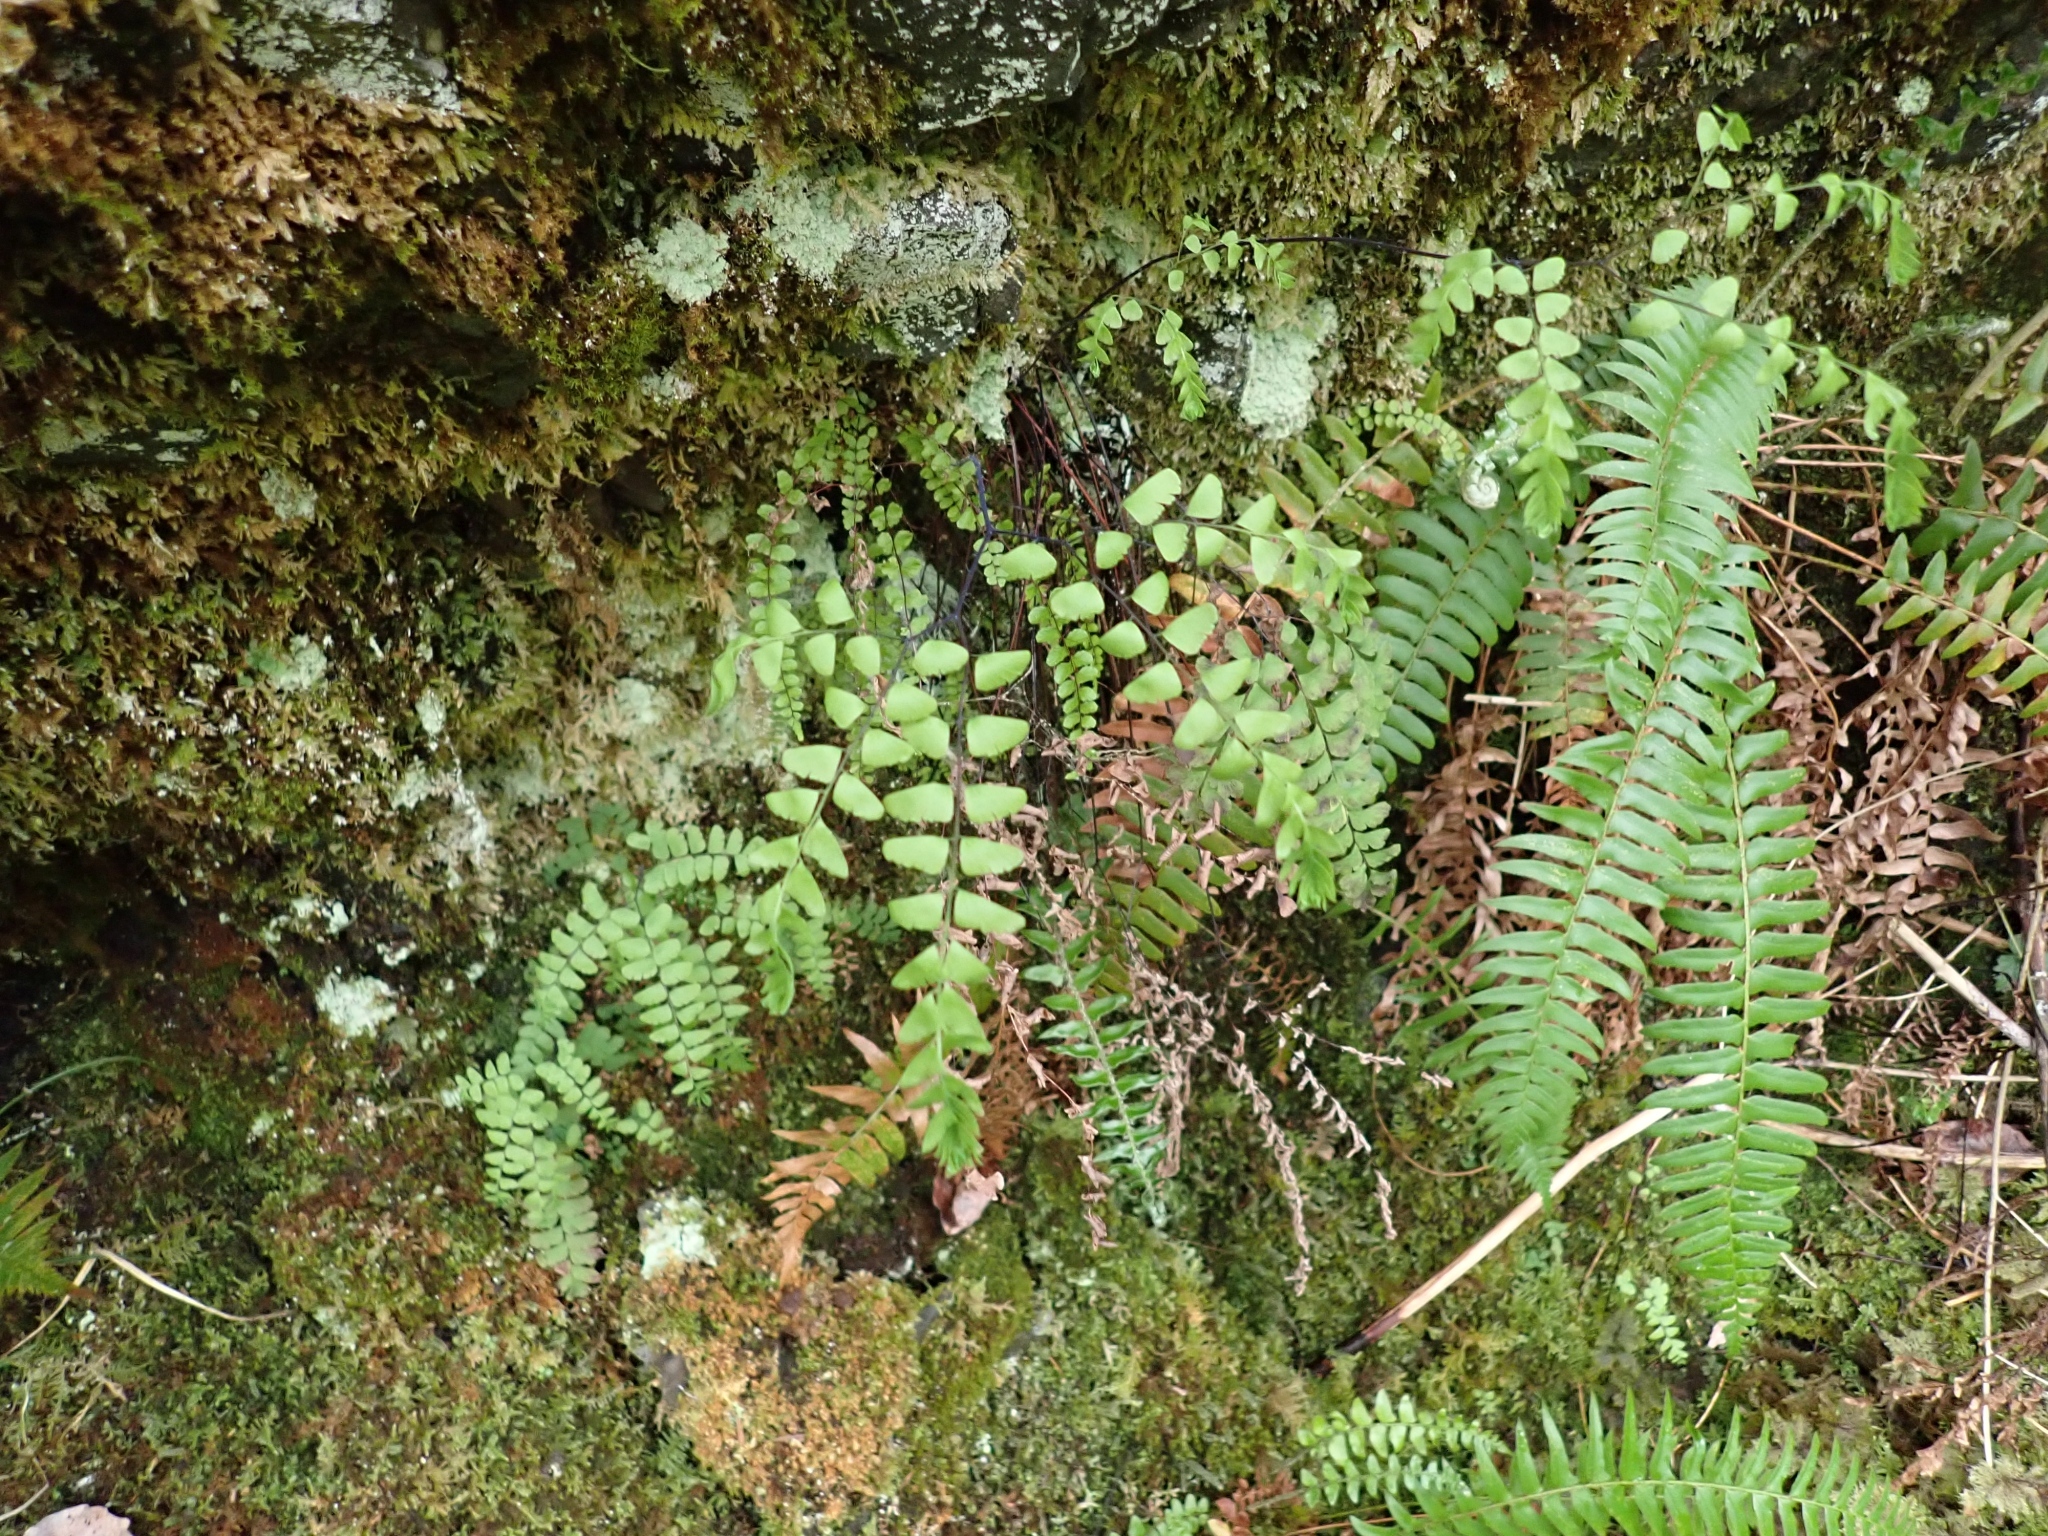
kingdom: Plantae
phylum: Tracheophyta
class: Polypodiopsida
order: Polypodiales
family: Pteridaceae
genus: Adiantum
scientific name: Adiantum aleuticum
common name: Aleutian maidenhair fern
